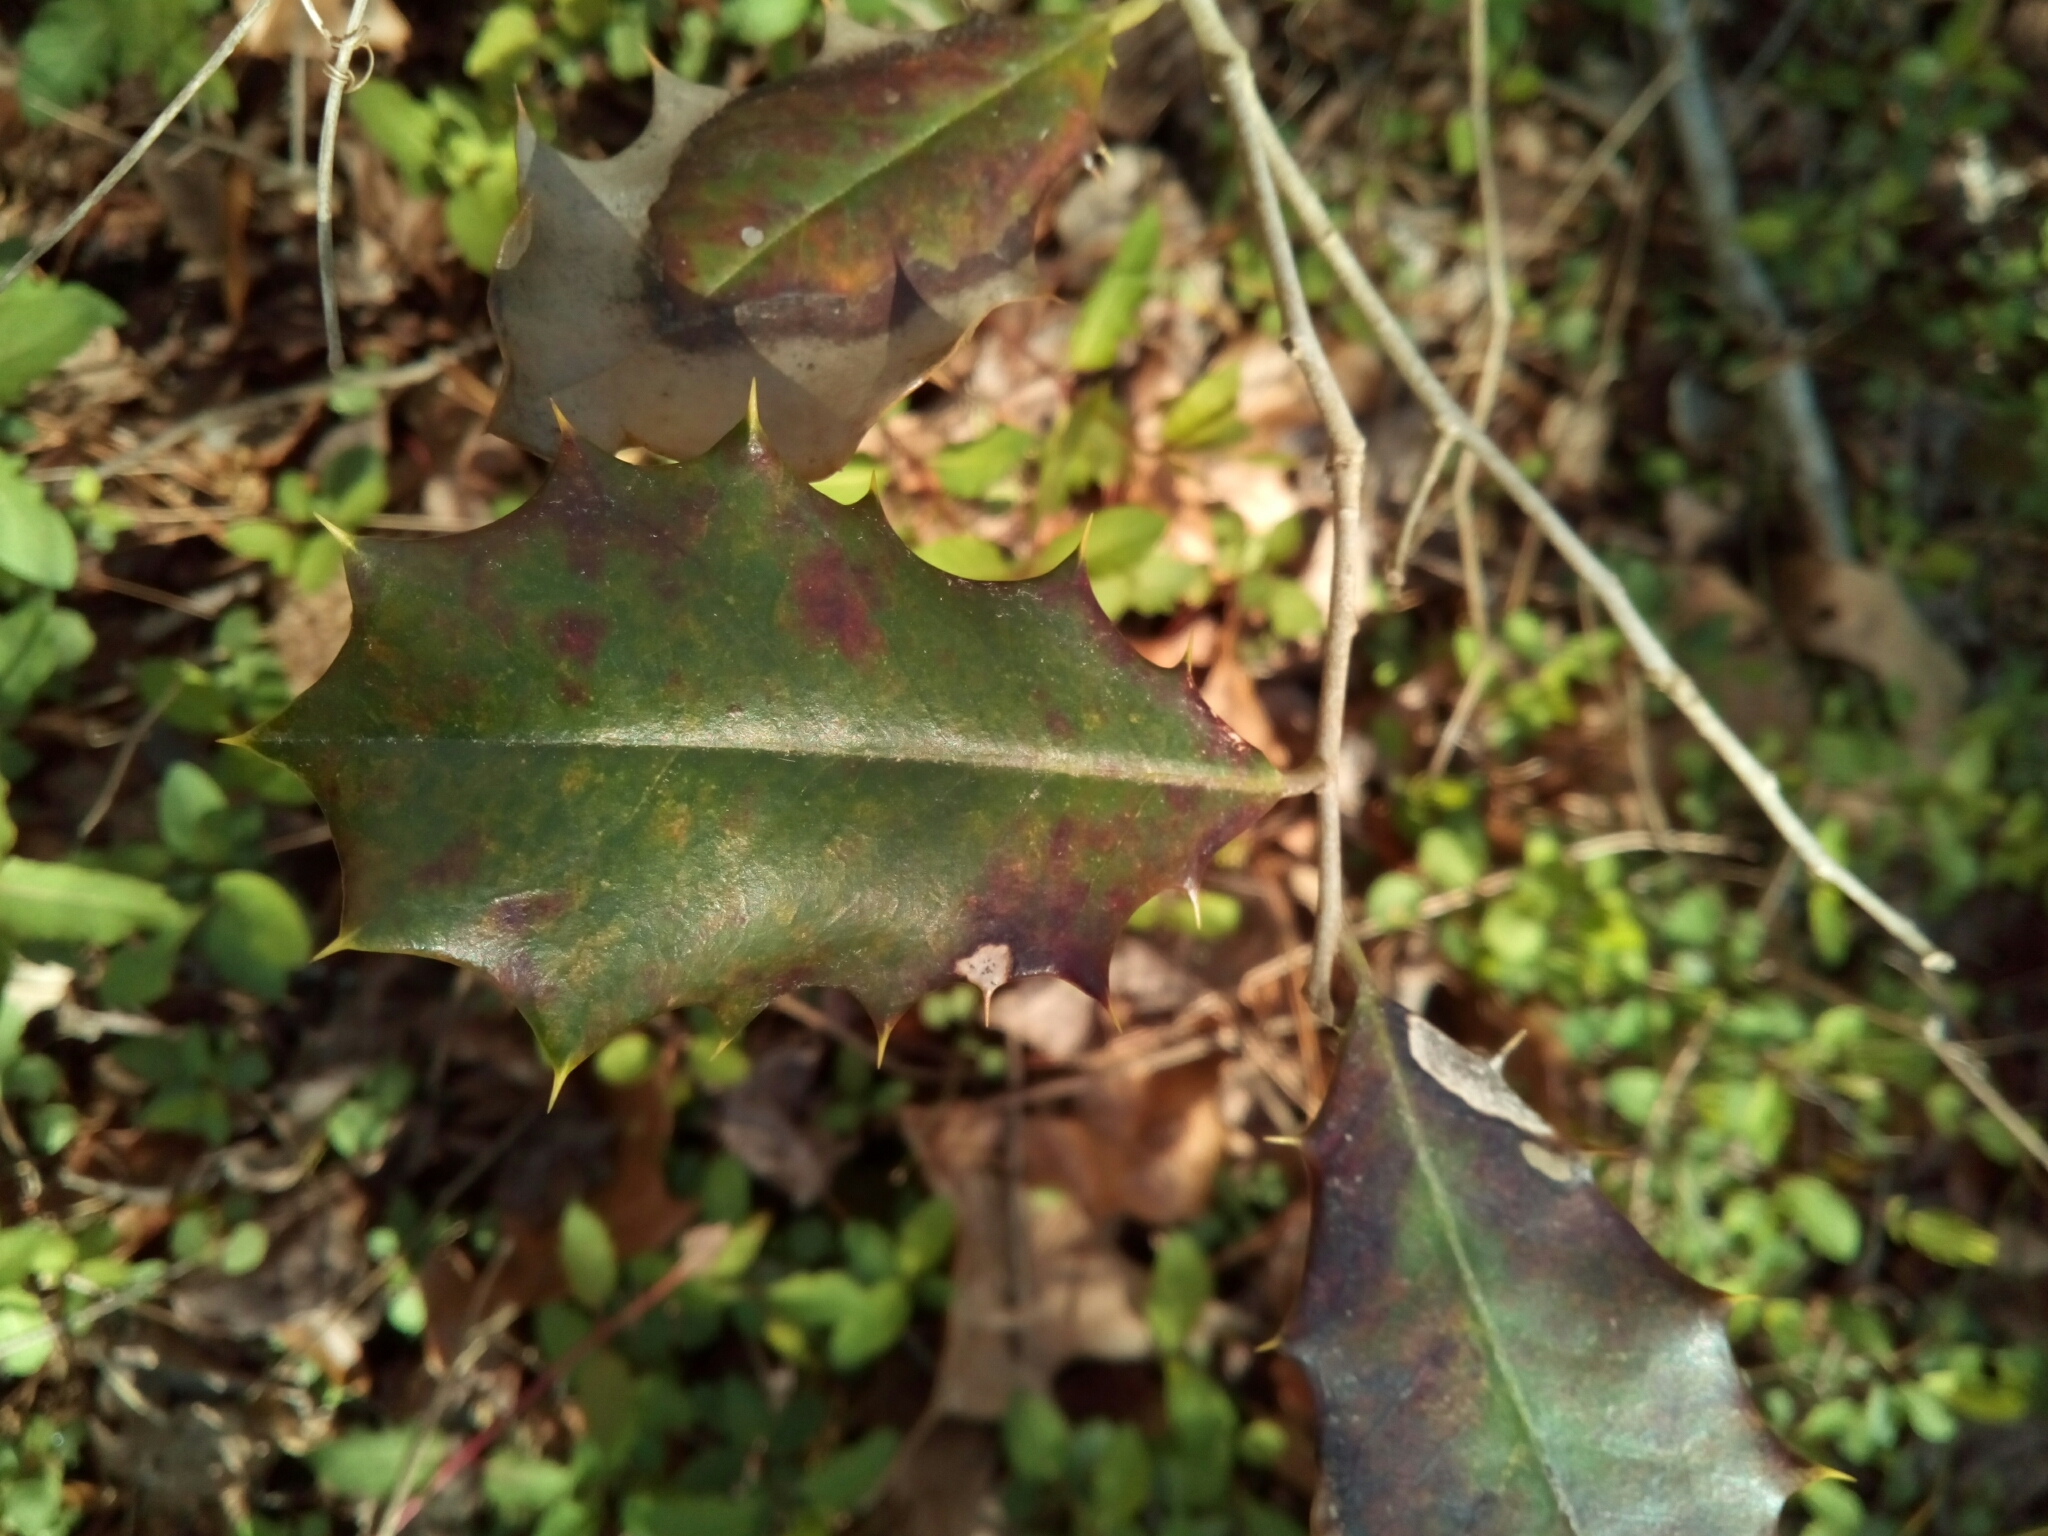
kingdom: Plantae
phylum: Tracheophyta
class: Magnoliopsida
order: Aquifoliales
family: Aquifoliaceae
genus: Ilex
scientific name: Ilex opaca
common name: American holly
